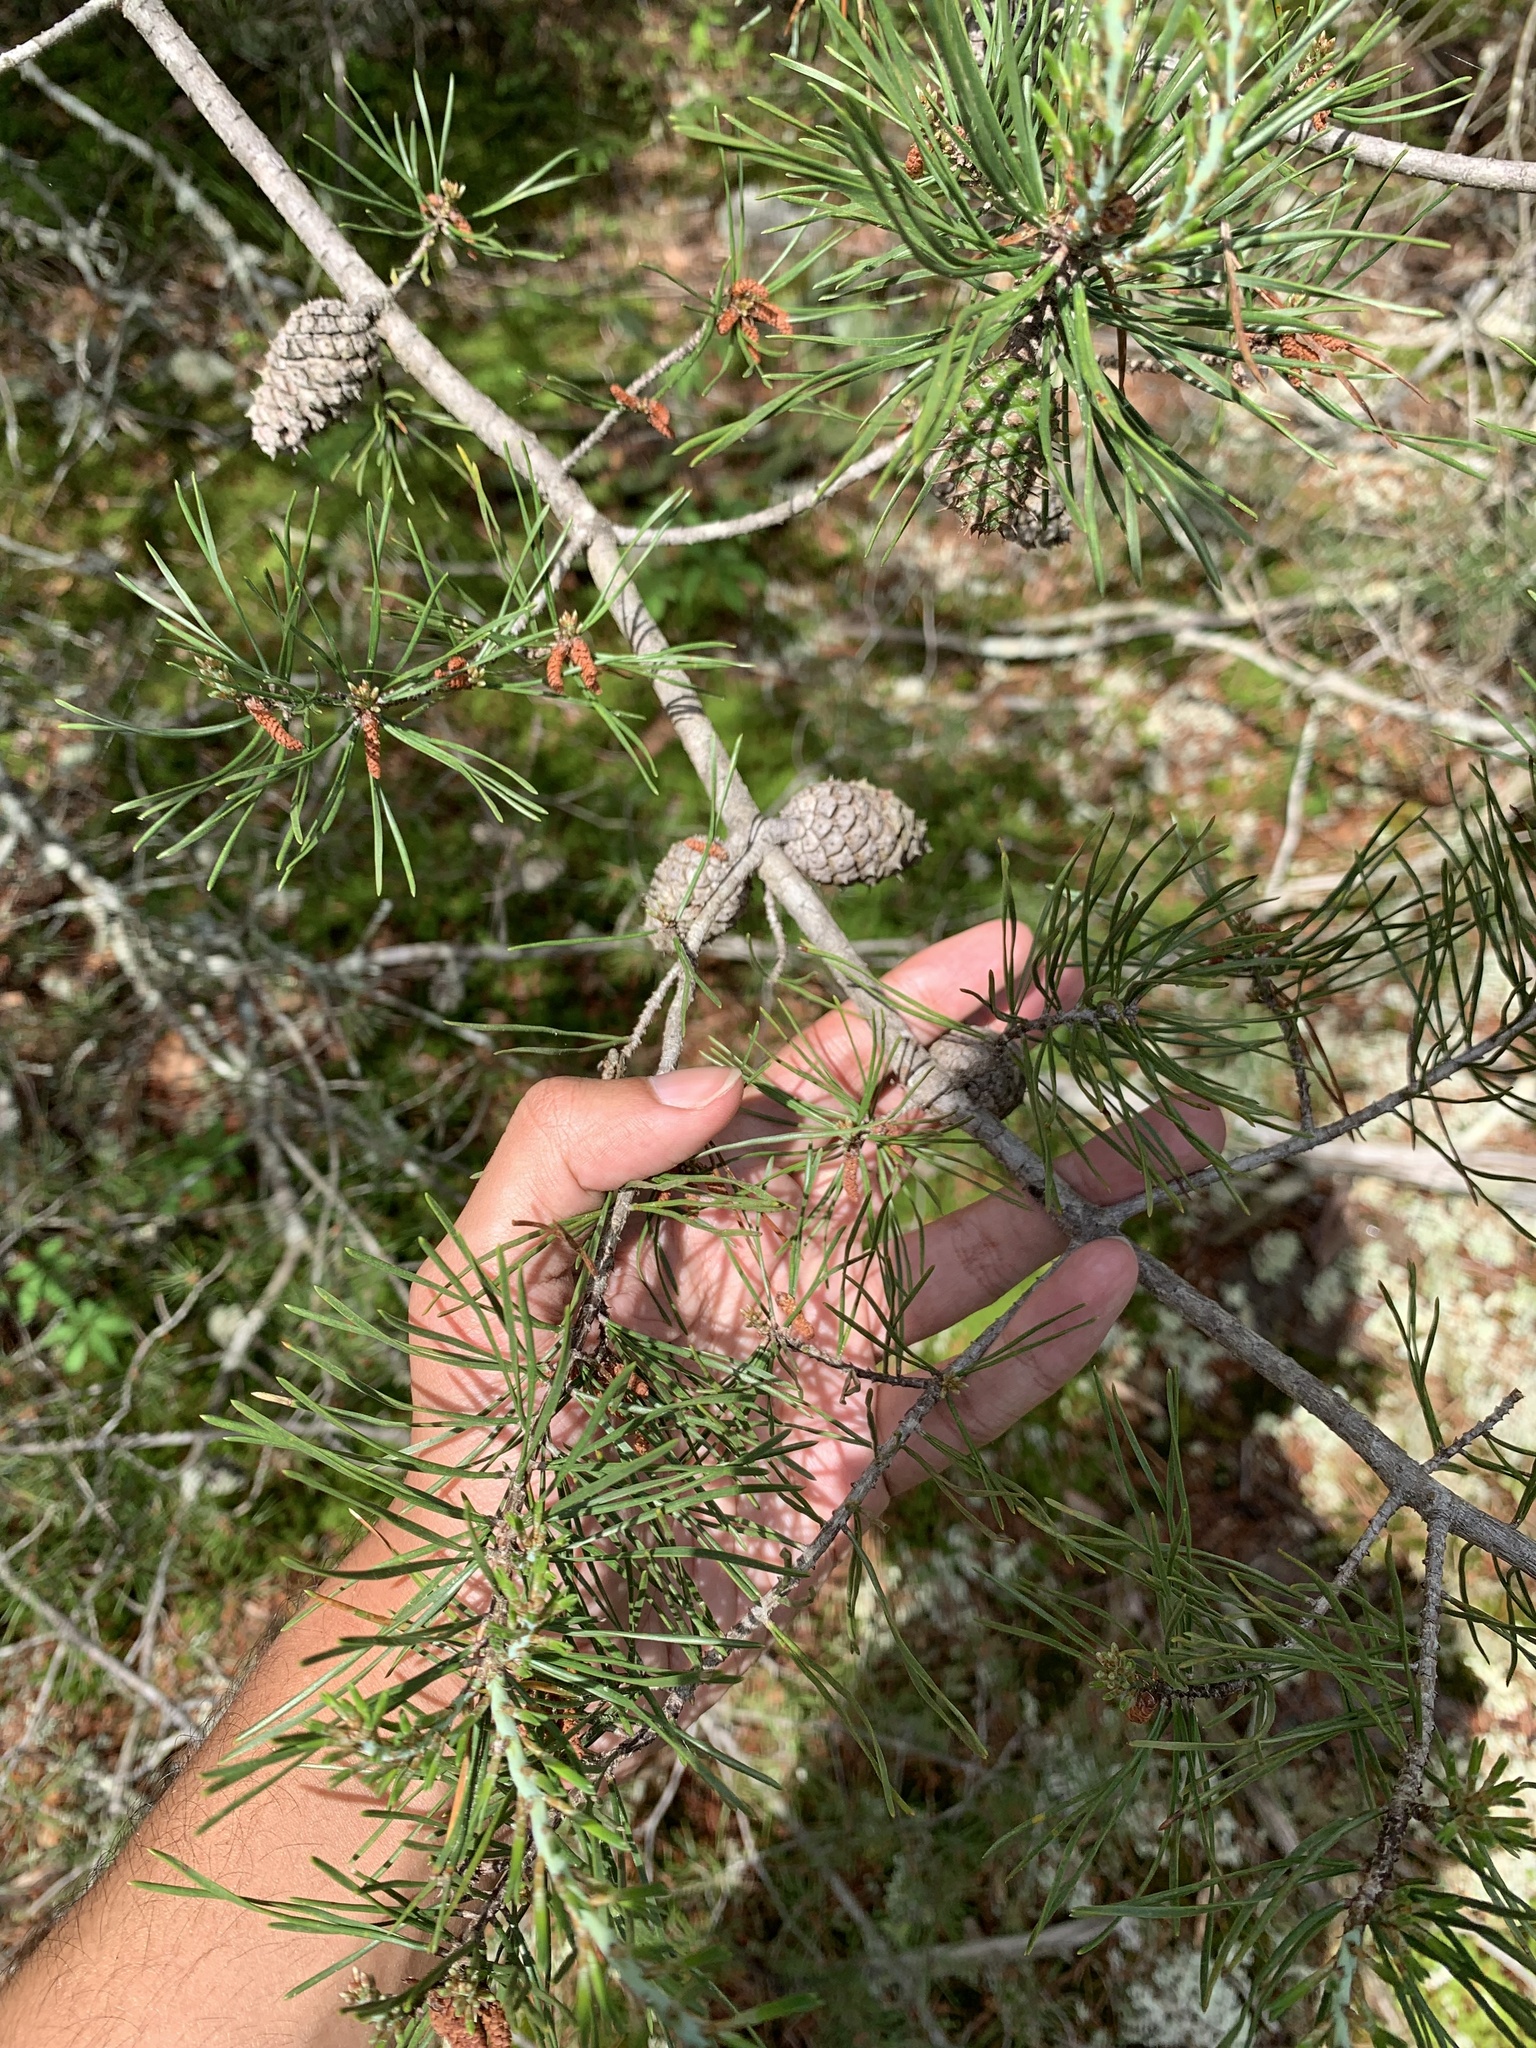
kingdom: Plantae
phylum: Tracheophyta
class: Pinopsida
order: Pinales
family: Pinaceae
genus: Pinus
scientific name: Pinus virginiana
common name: Scrub pine
